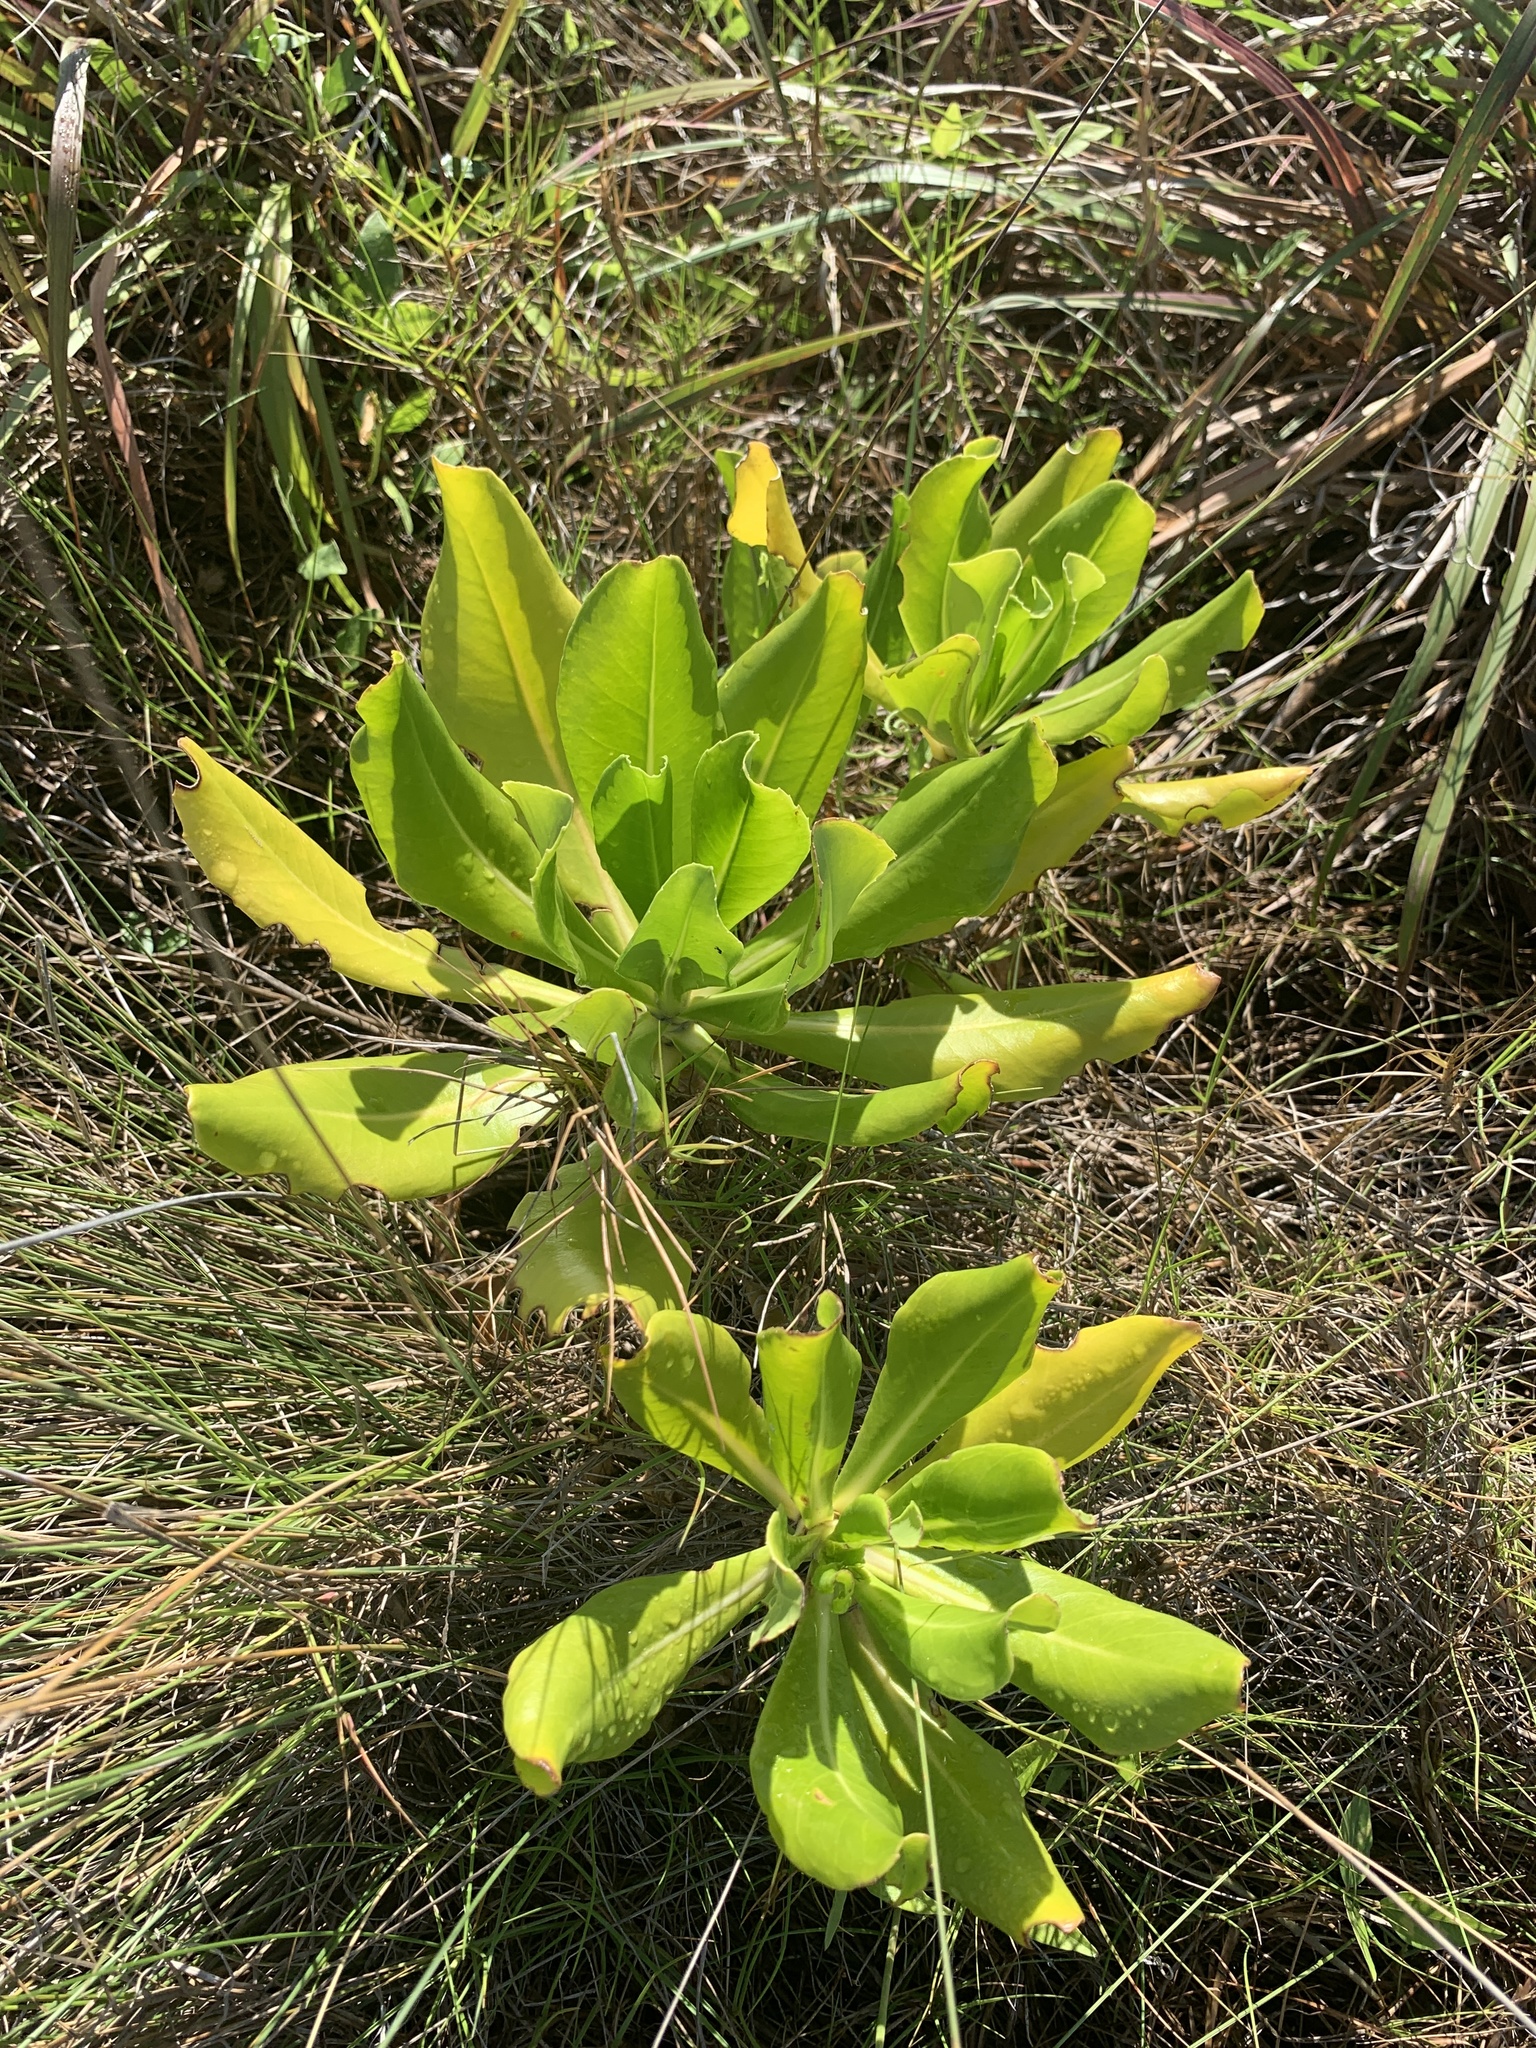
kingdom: Plantae
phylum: Tracheophyta
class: Magnoliopsida
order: Asterales
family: Goodeniaceae
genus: Scaevola
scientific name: Scaevola taccada
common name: Sea lettucetree
